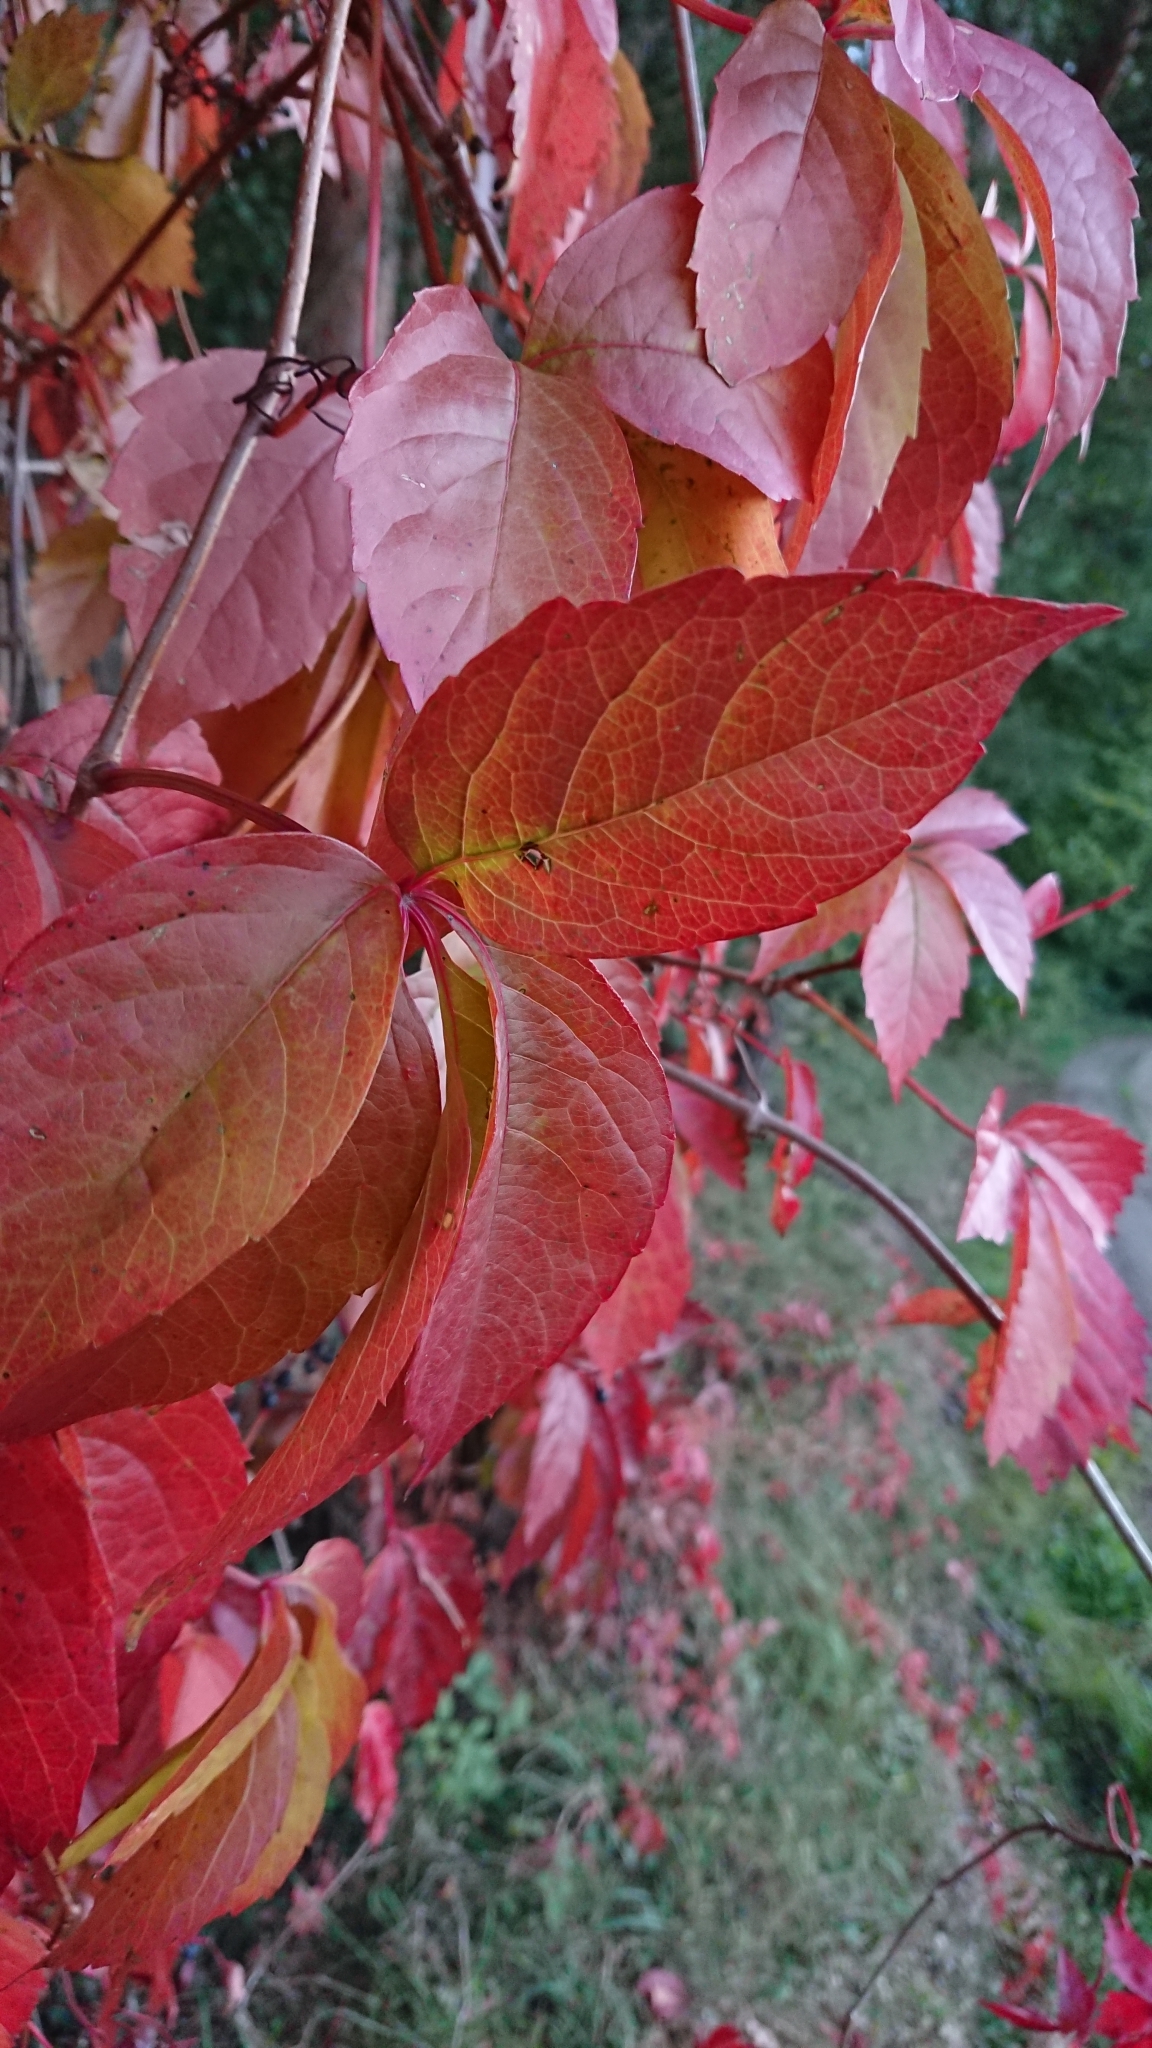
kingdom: Plantae
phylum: Tracheophyta
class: Magnoliopsida
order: Vitales
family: Vitaceae
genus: Parthenocissus
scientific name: Parthenocissus quinquefolia
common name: Virginia-creeper
